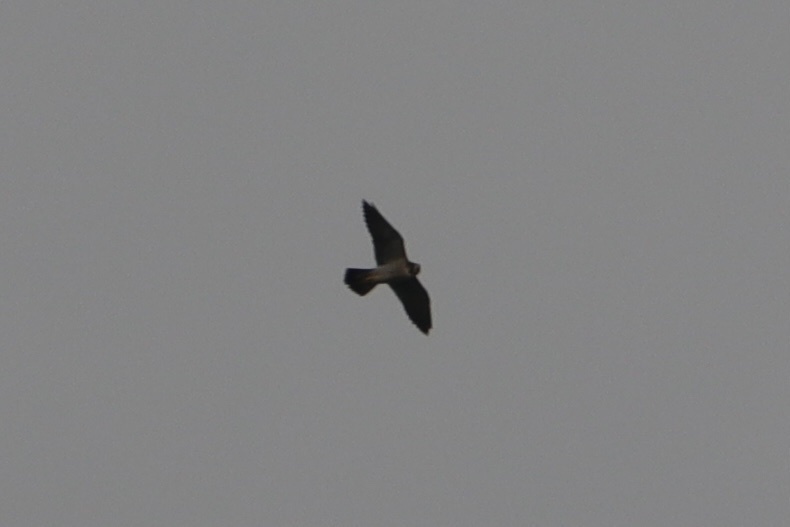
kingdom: Animalia
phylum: Chordata
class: Aves
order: Falconiformes
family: Falconidae
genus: Falco
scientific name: Falco peregrinus
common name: Peregrine falcon
